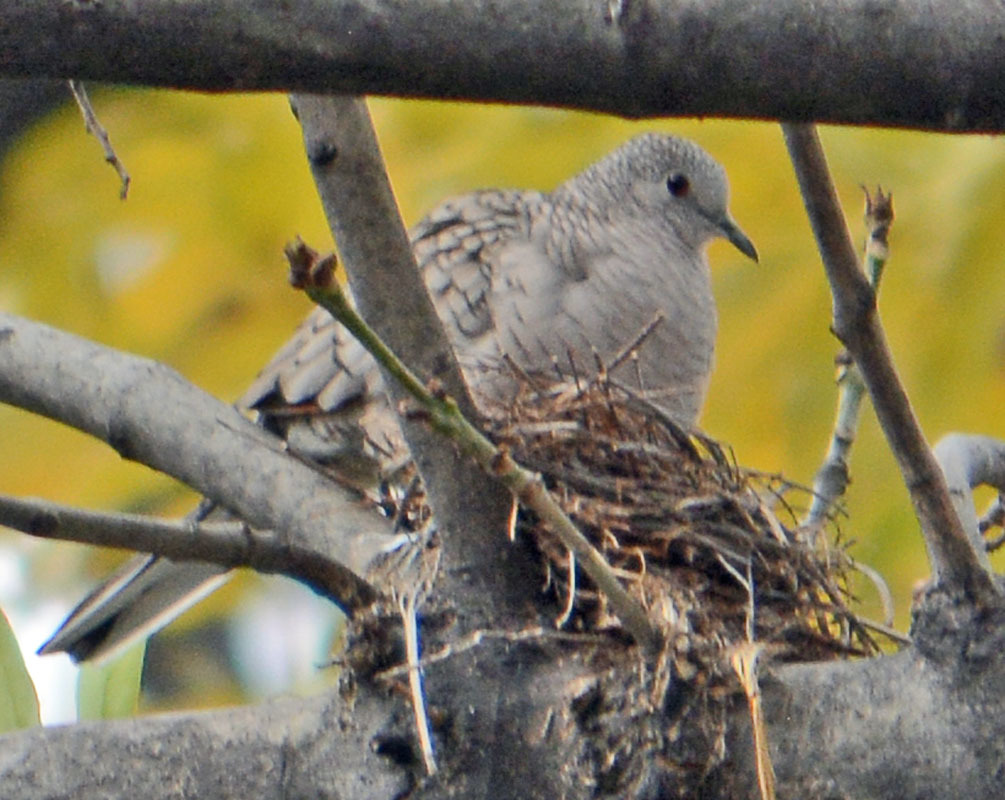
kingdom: Animalia
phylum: Chordata
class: Aves
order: Columbiformes
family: Columbidae
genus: Columbina
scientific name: Columbina inca
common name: Inca dove
